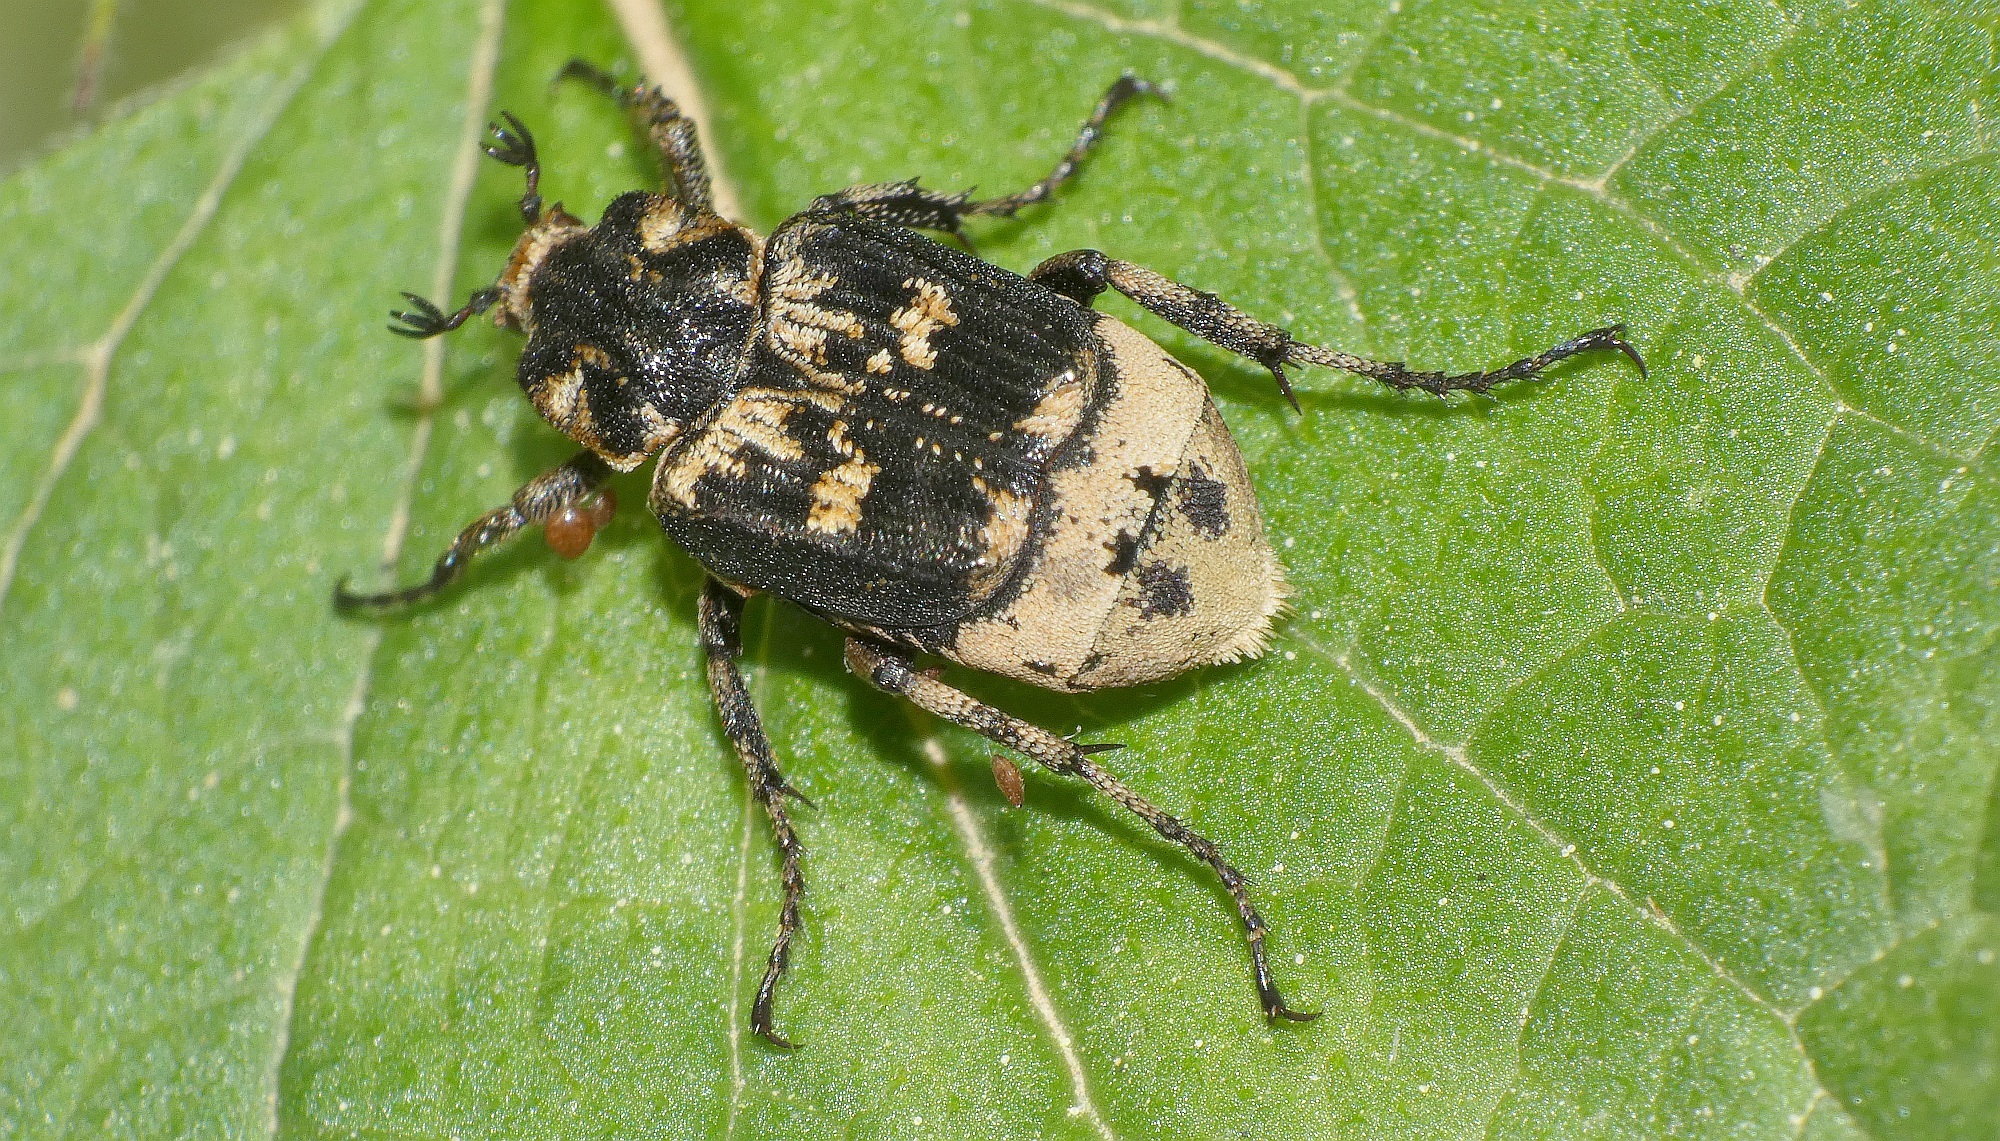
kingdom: Animalia
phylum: Arthropoda
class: Insecta
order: Coleoptera
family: Scarabaeidae
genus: Valgus
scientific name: Valgus hemipterus
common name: Bug flower chafer
